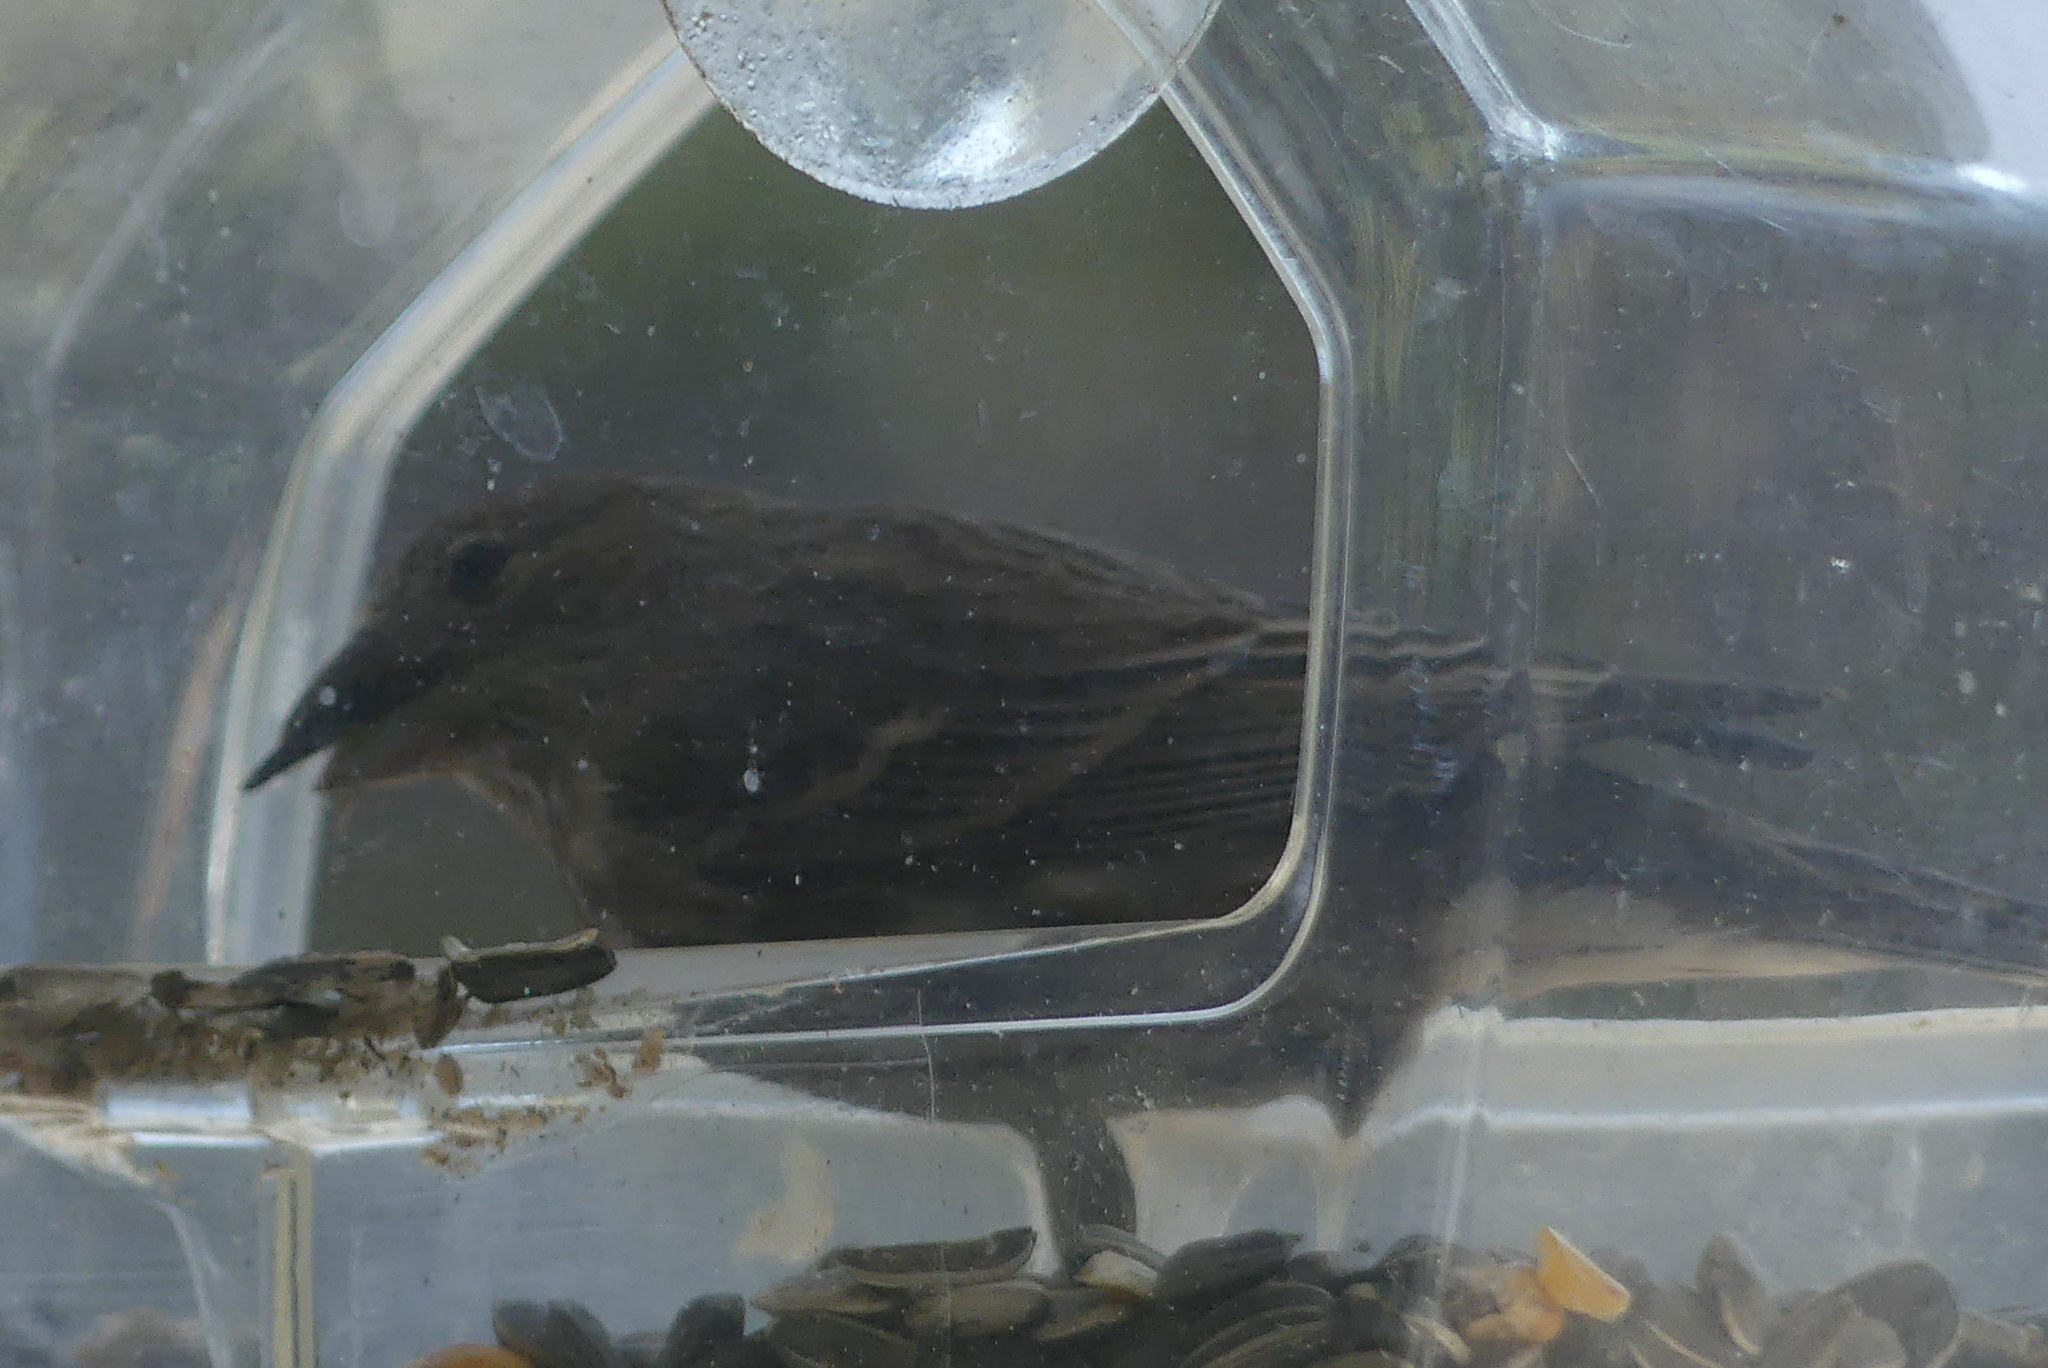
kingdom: Animalia
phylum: Chordata
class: Aves
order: Passeriformes
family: Fringillidae
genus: Haemorhous
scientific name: Haemorhous mexicanus
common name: House finch
